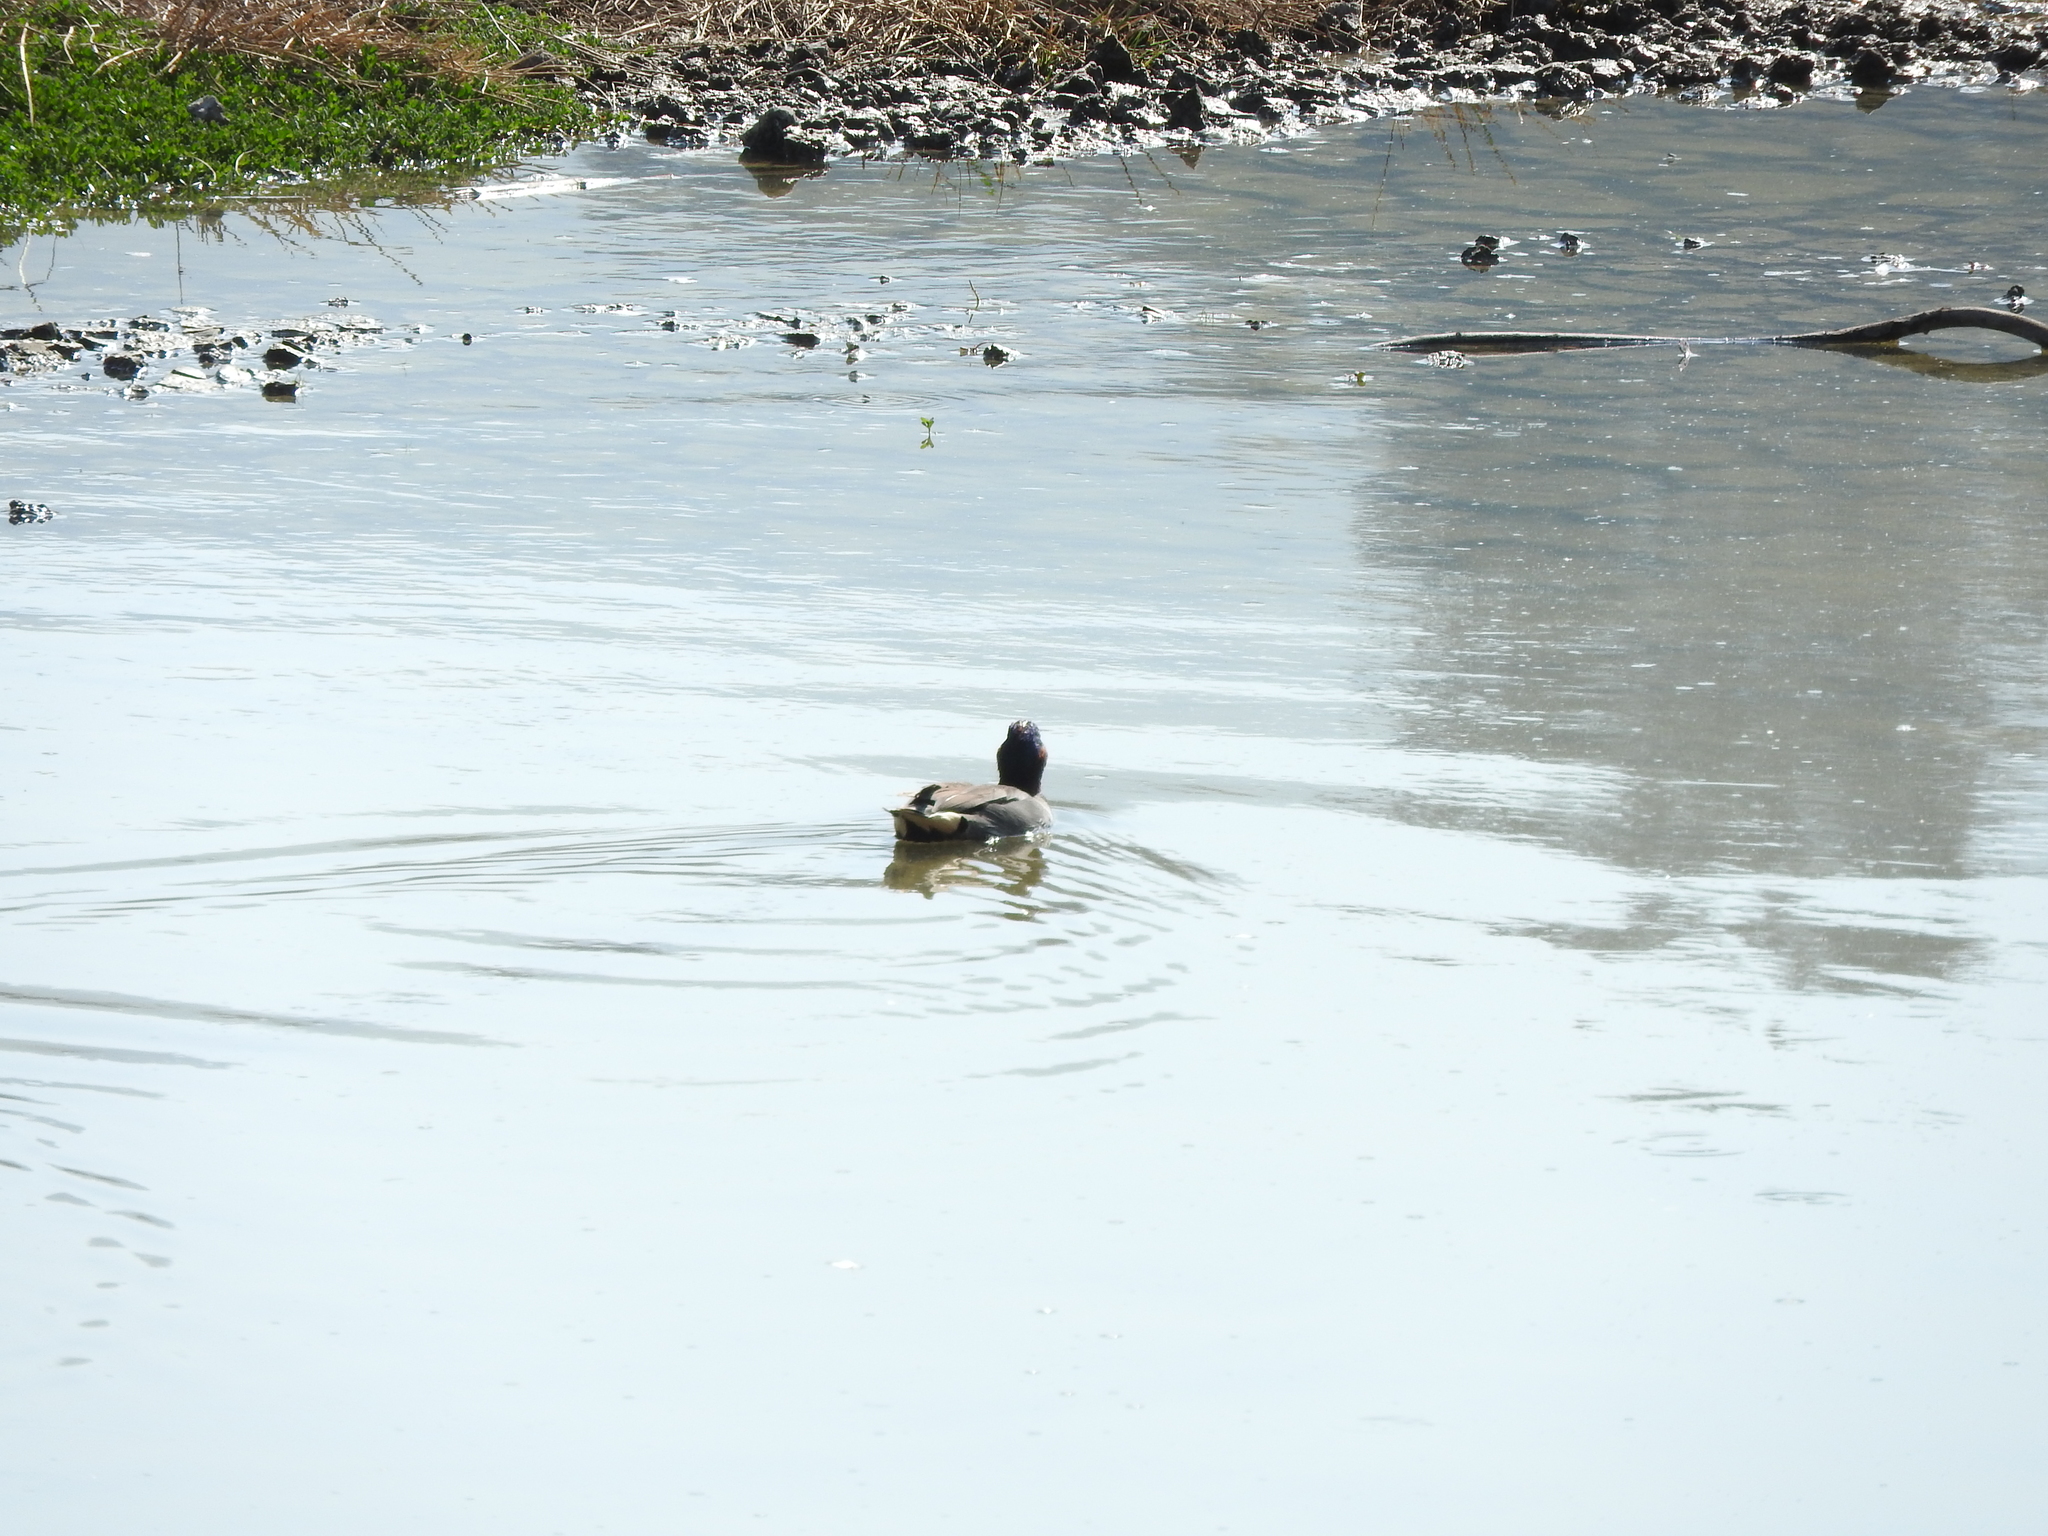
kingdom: Animalia
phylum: Chordata
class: Aves
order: Anseriformes
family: Anatidae
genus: Anas
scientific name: Anas crecca
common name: Eurasian teal
